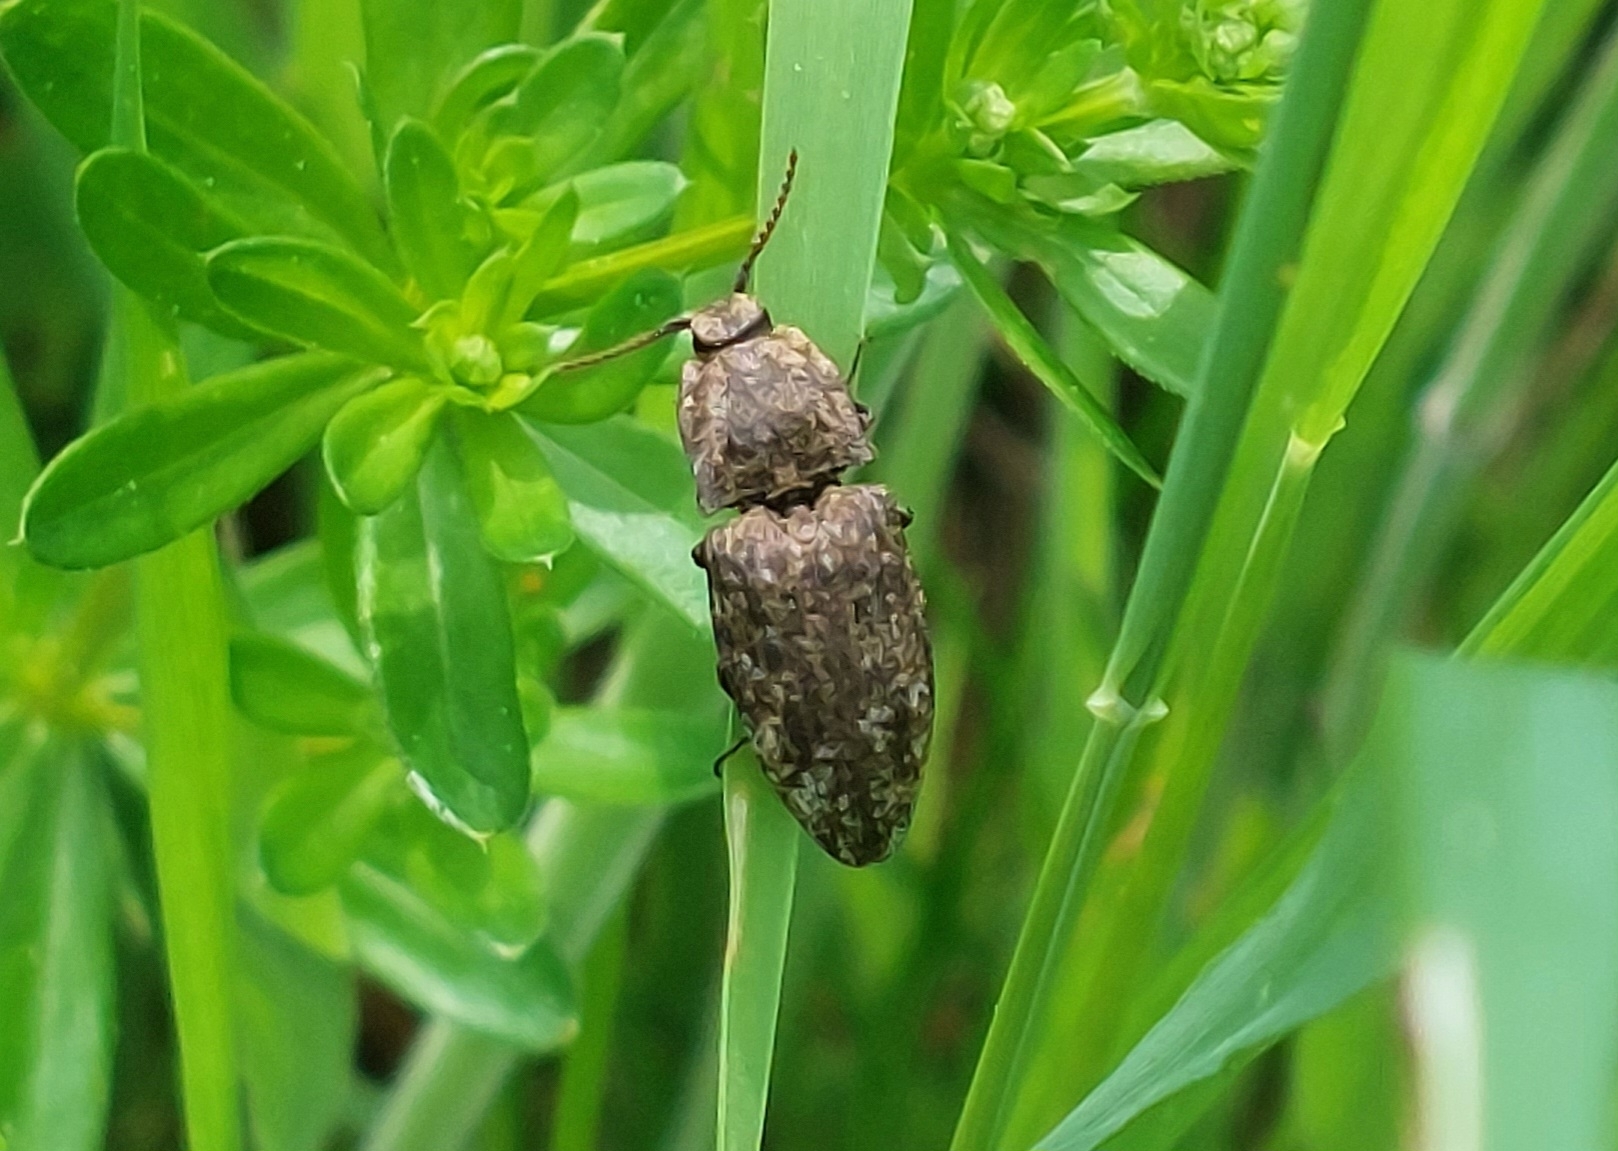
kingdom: Animalia
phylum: Arthropoda
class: Insecta
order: Coleoptera
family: Elateridae
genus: Agrypnus
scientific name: Agrypnus murinus
